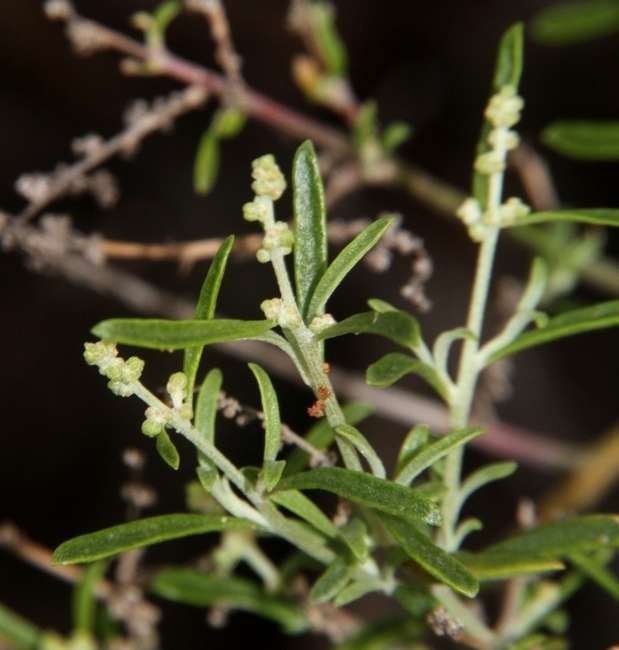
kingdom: Plantae
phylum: Tracheophyta
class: Magnoliopsida
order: Caryophyllales
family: Amaranthaceae
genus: Chenopodium
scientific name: Chenopodium wilsonii
